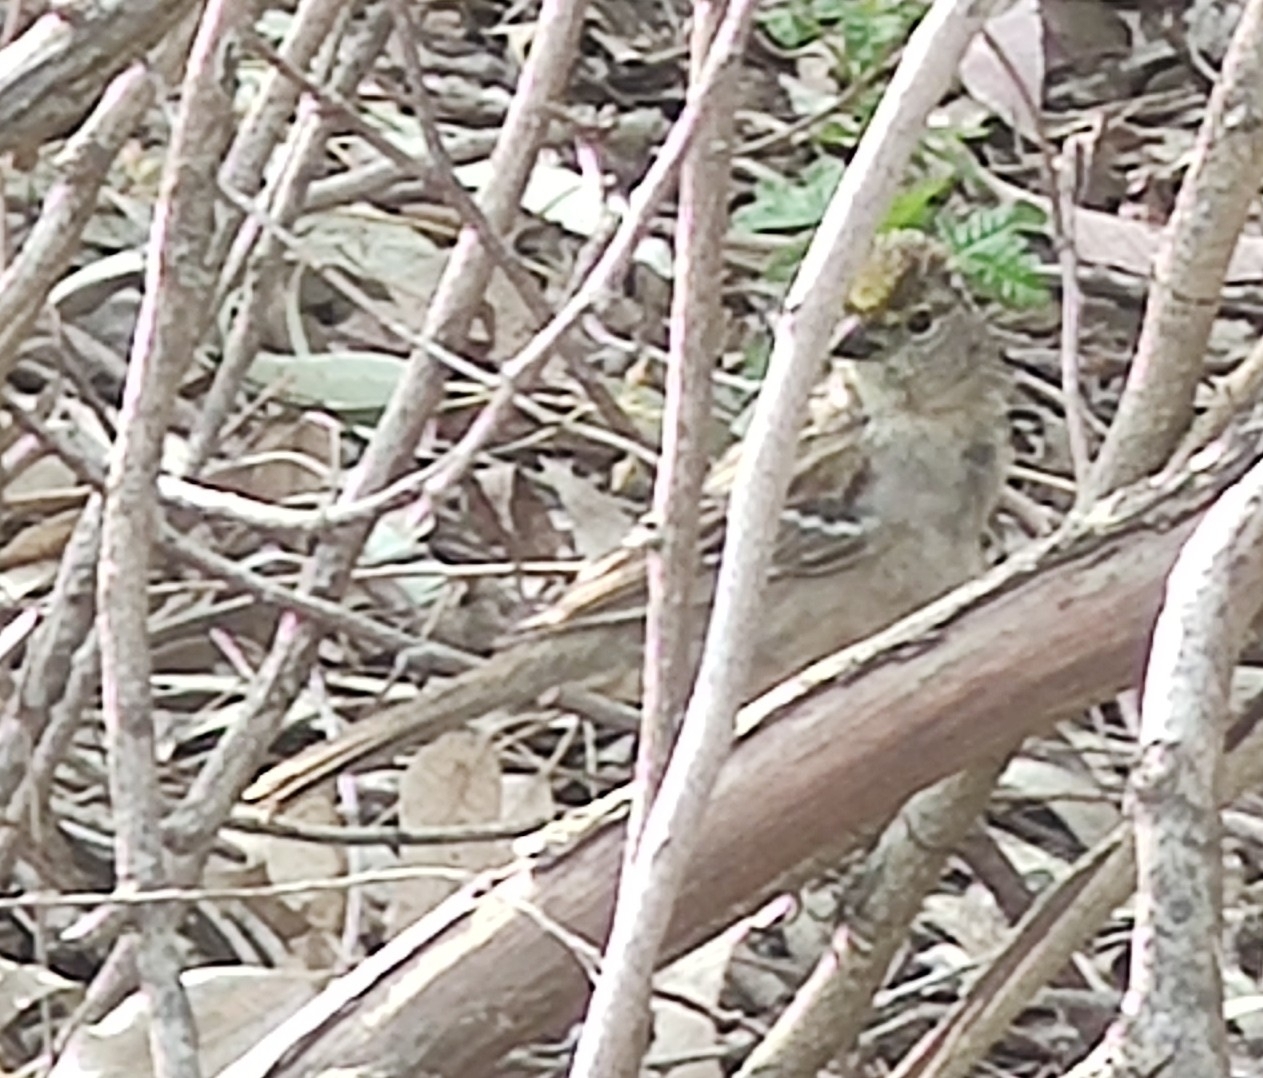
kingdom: Animalia
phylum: Chordata
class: Aves
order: Passeriformes
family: Passerellidae
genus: Zonotrichia
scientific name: Zonotrichia atricapilla
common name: Golden-crowned sparrow
